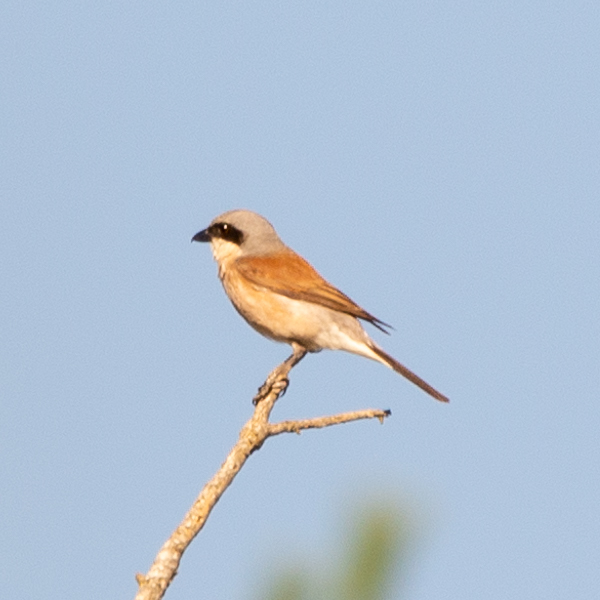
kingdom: Animalia
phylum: Chordata
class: Aves
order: Passeriformes
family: Laniidae
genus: Lanius
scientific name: Lanius collurio
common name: Red-backed shrike
